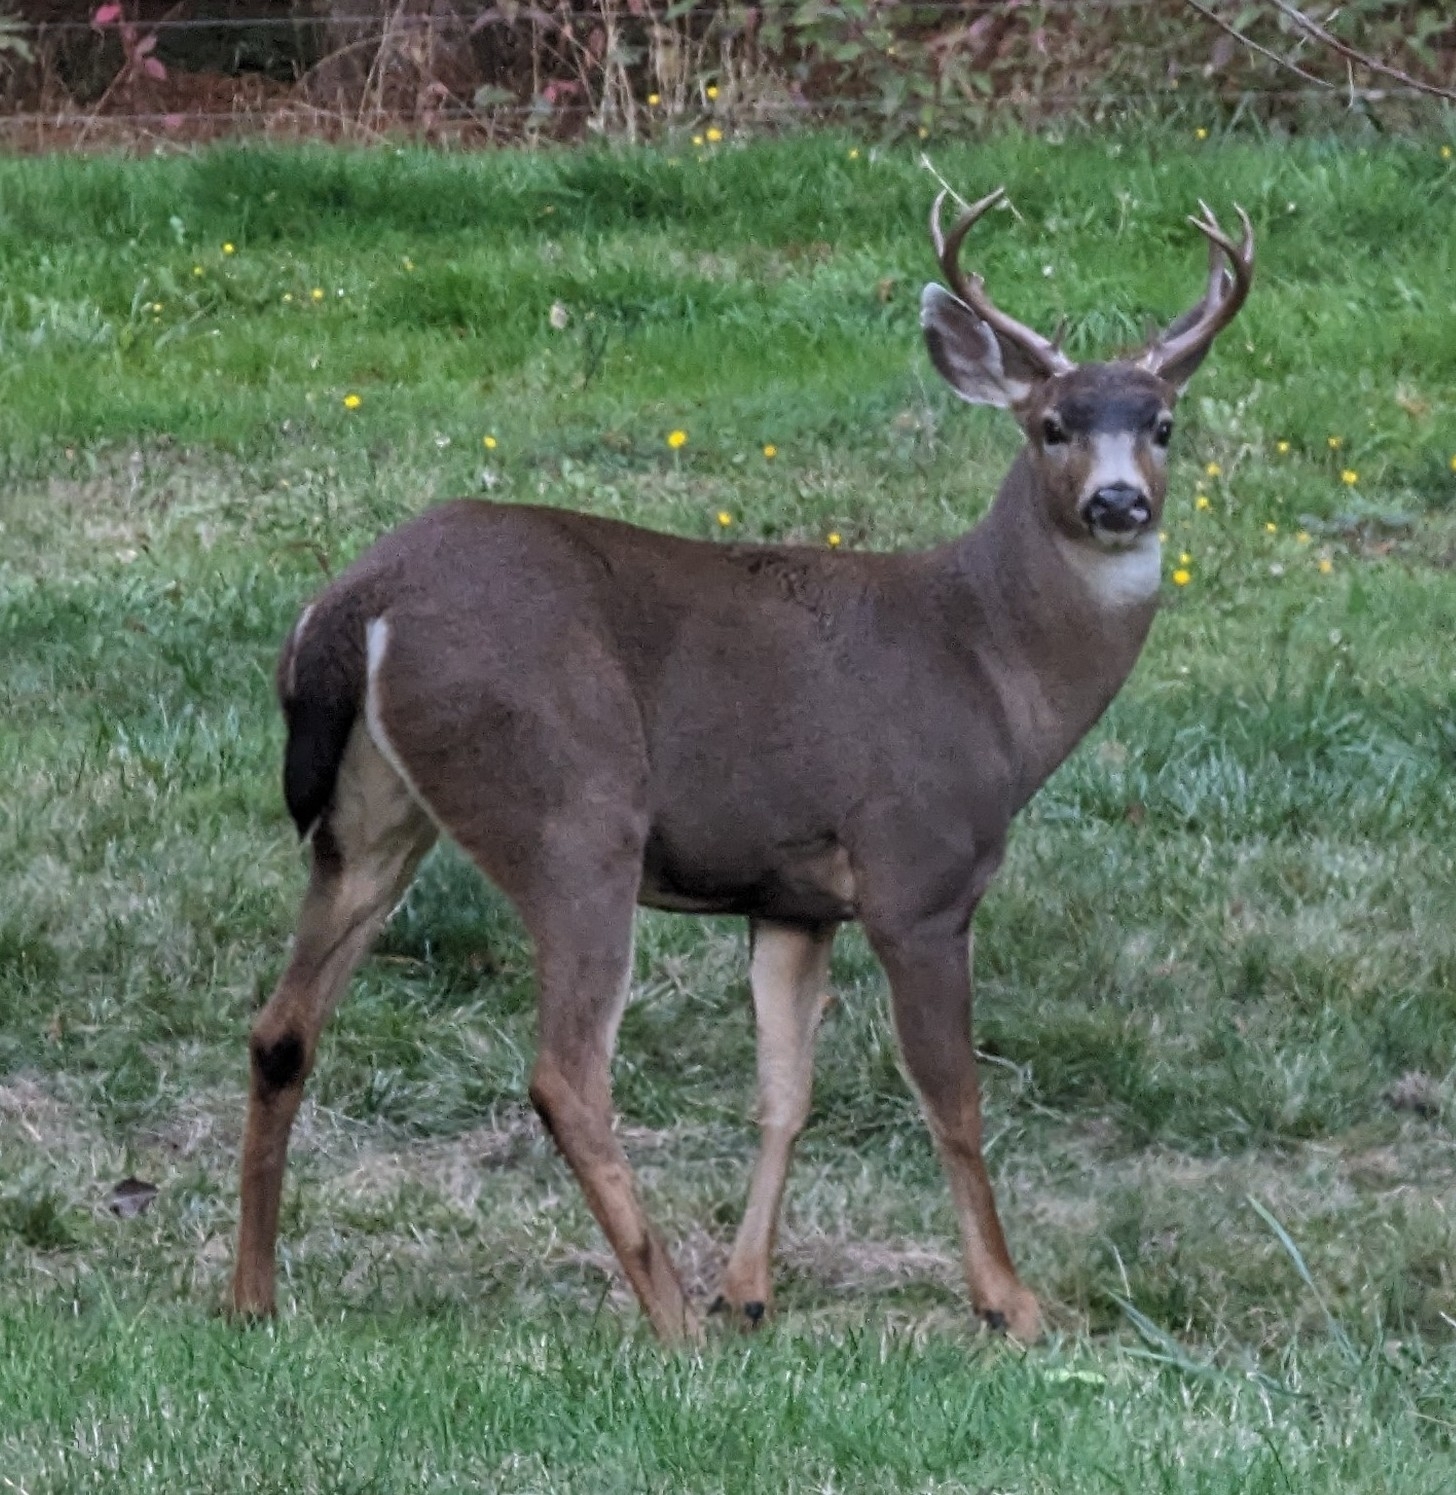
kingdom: Animalia
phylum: Chordata
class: Mammalia
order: Artiodactyla
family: Cervidae
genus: Odocoileus
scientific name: Odocoileus hemionus
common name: Mule deer
